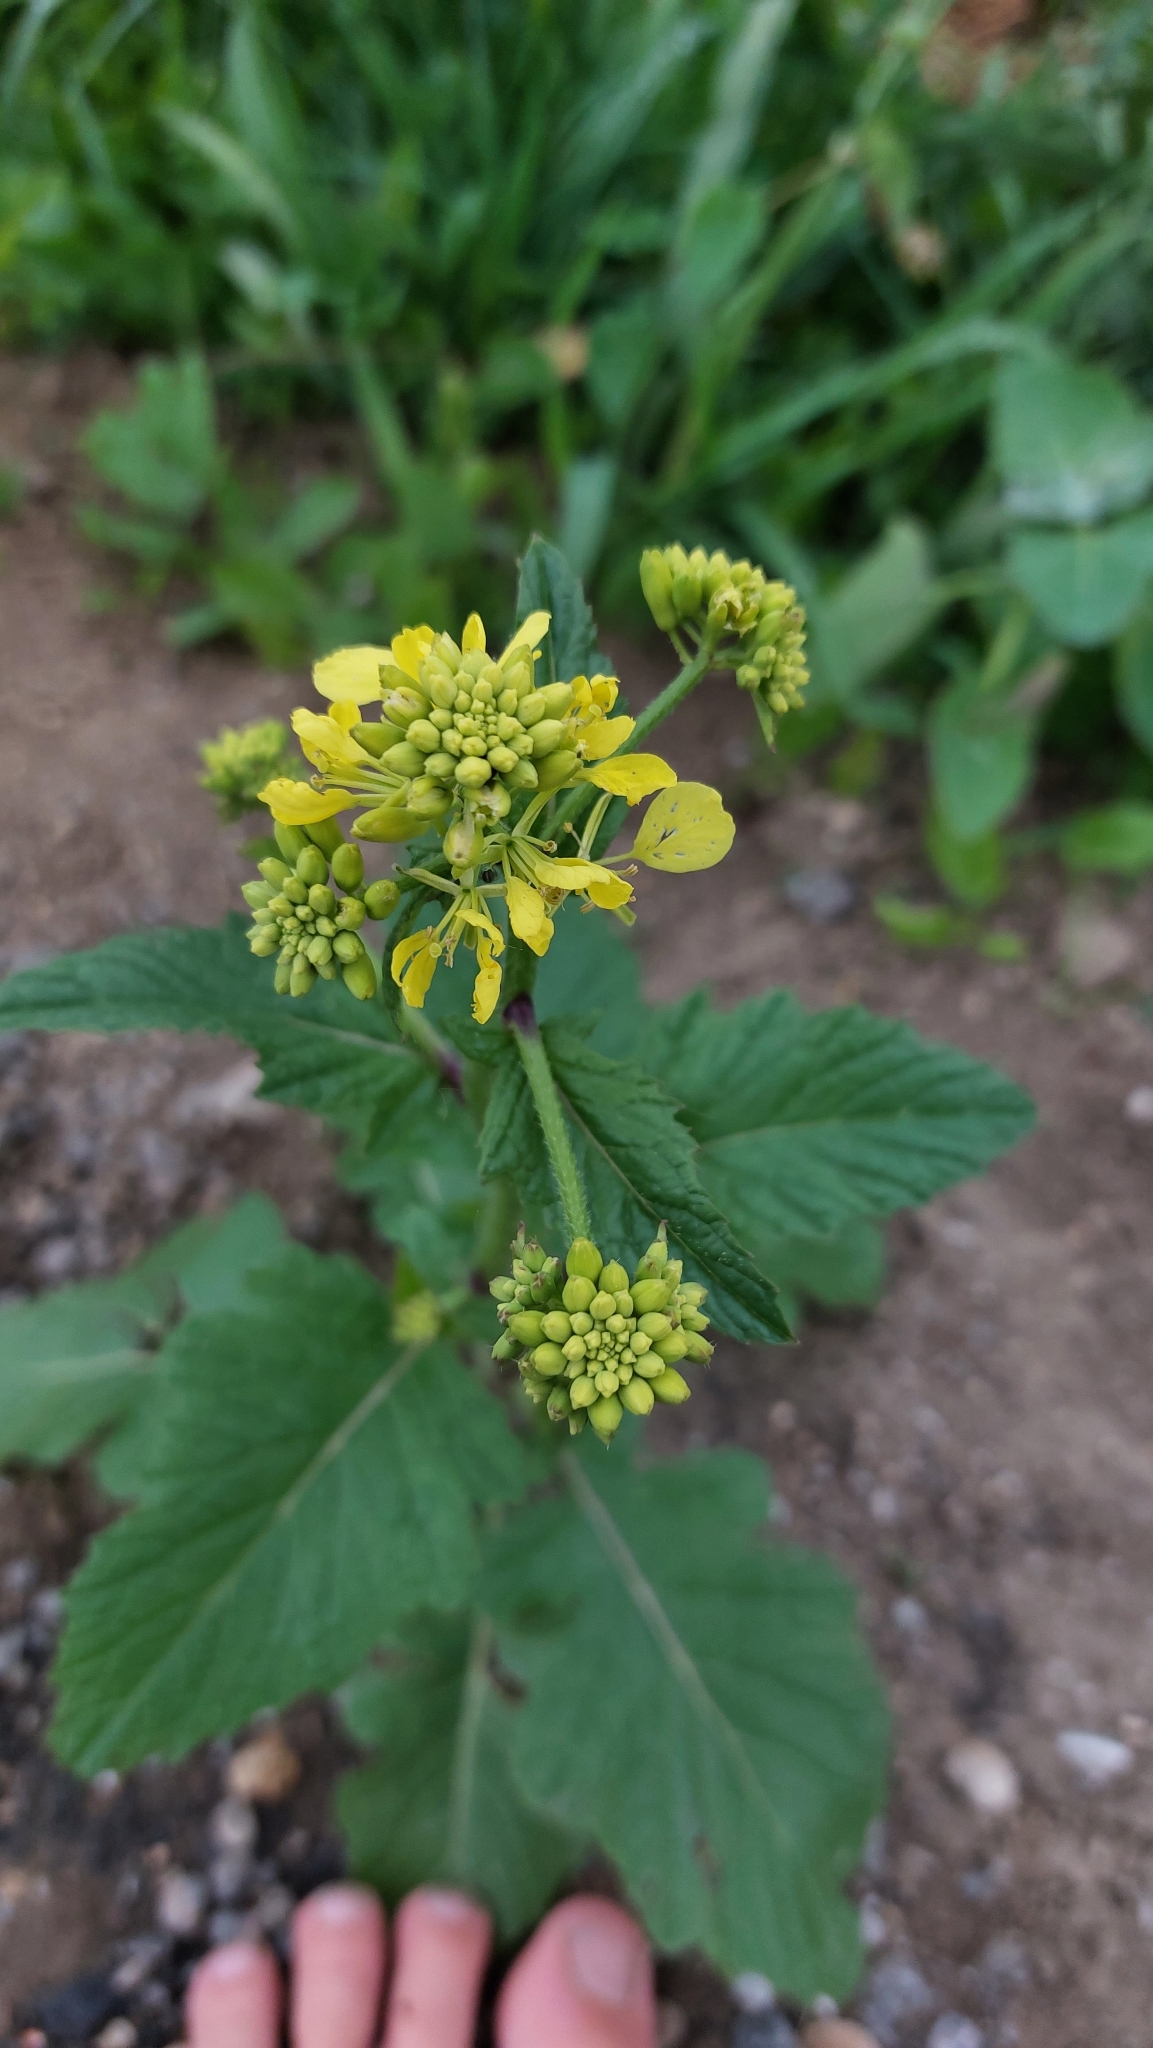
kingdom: Plantae
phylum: Tracheophyta
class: Magnoliopsida
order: Brassicales
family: Brassicaceae
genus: Sinapis
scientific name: Sinapis arvensis
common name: Charlock
